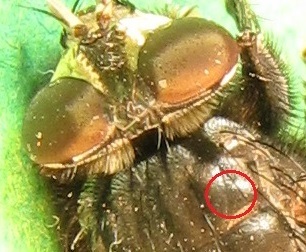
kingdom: Animalia
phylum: Arthropoda
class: Insecta
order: Diptera
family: Calliphoridae
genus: Cynomya
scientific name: Cynomya cadaverina
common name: Shiny blue bottle fly
